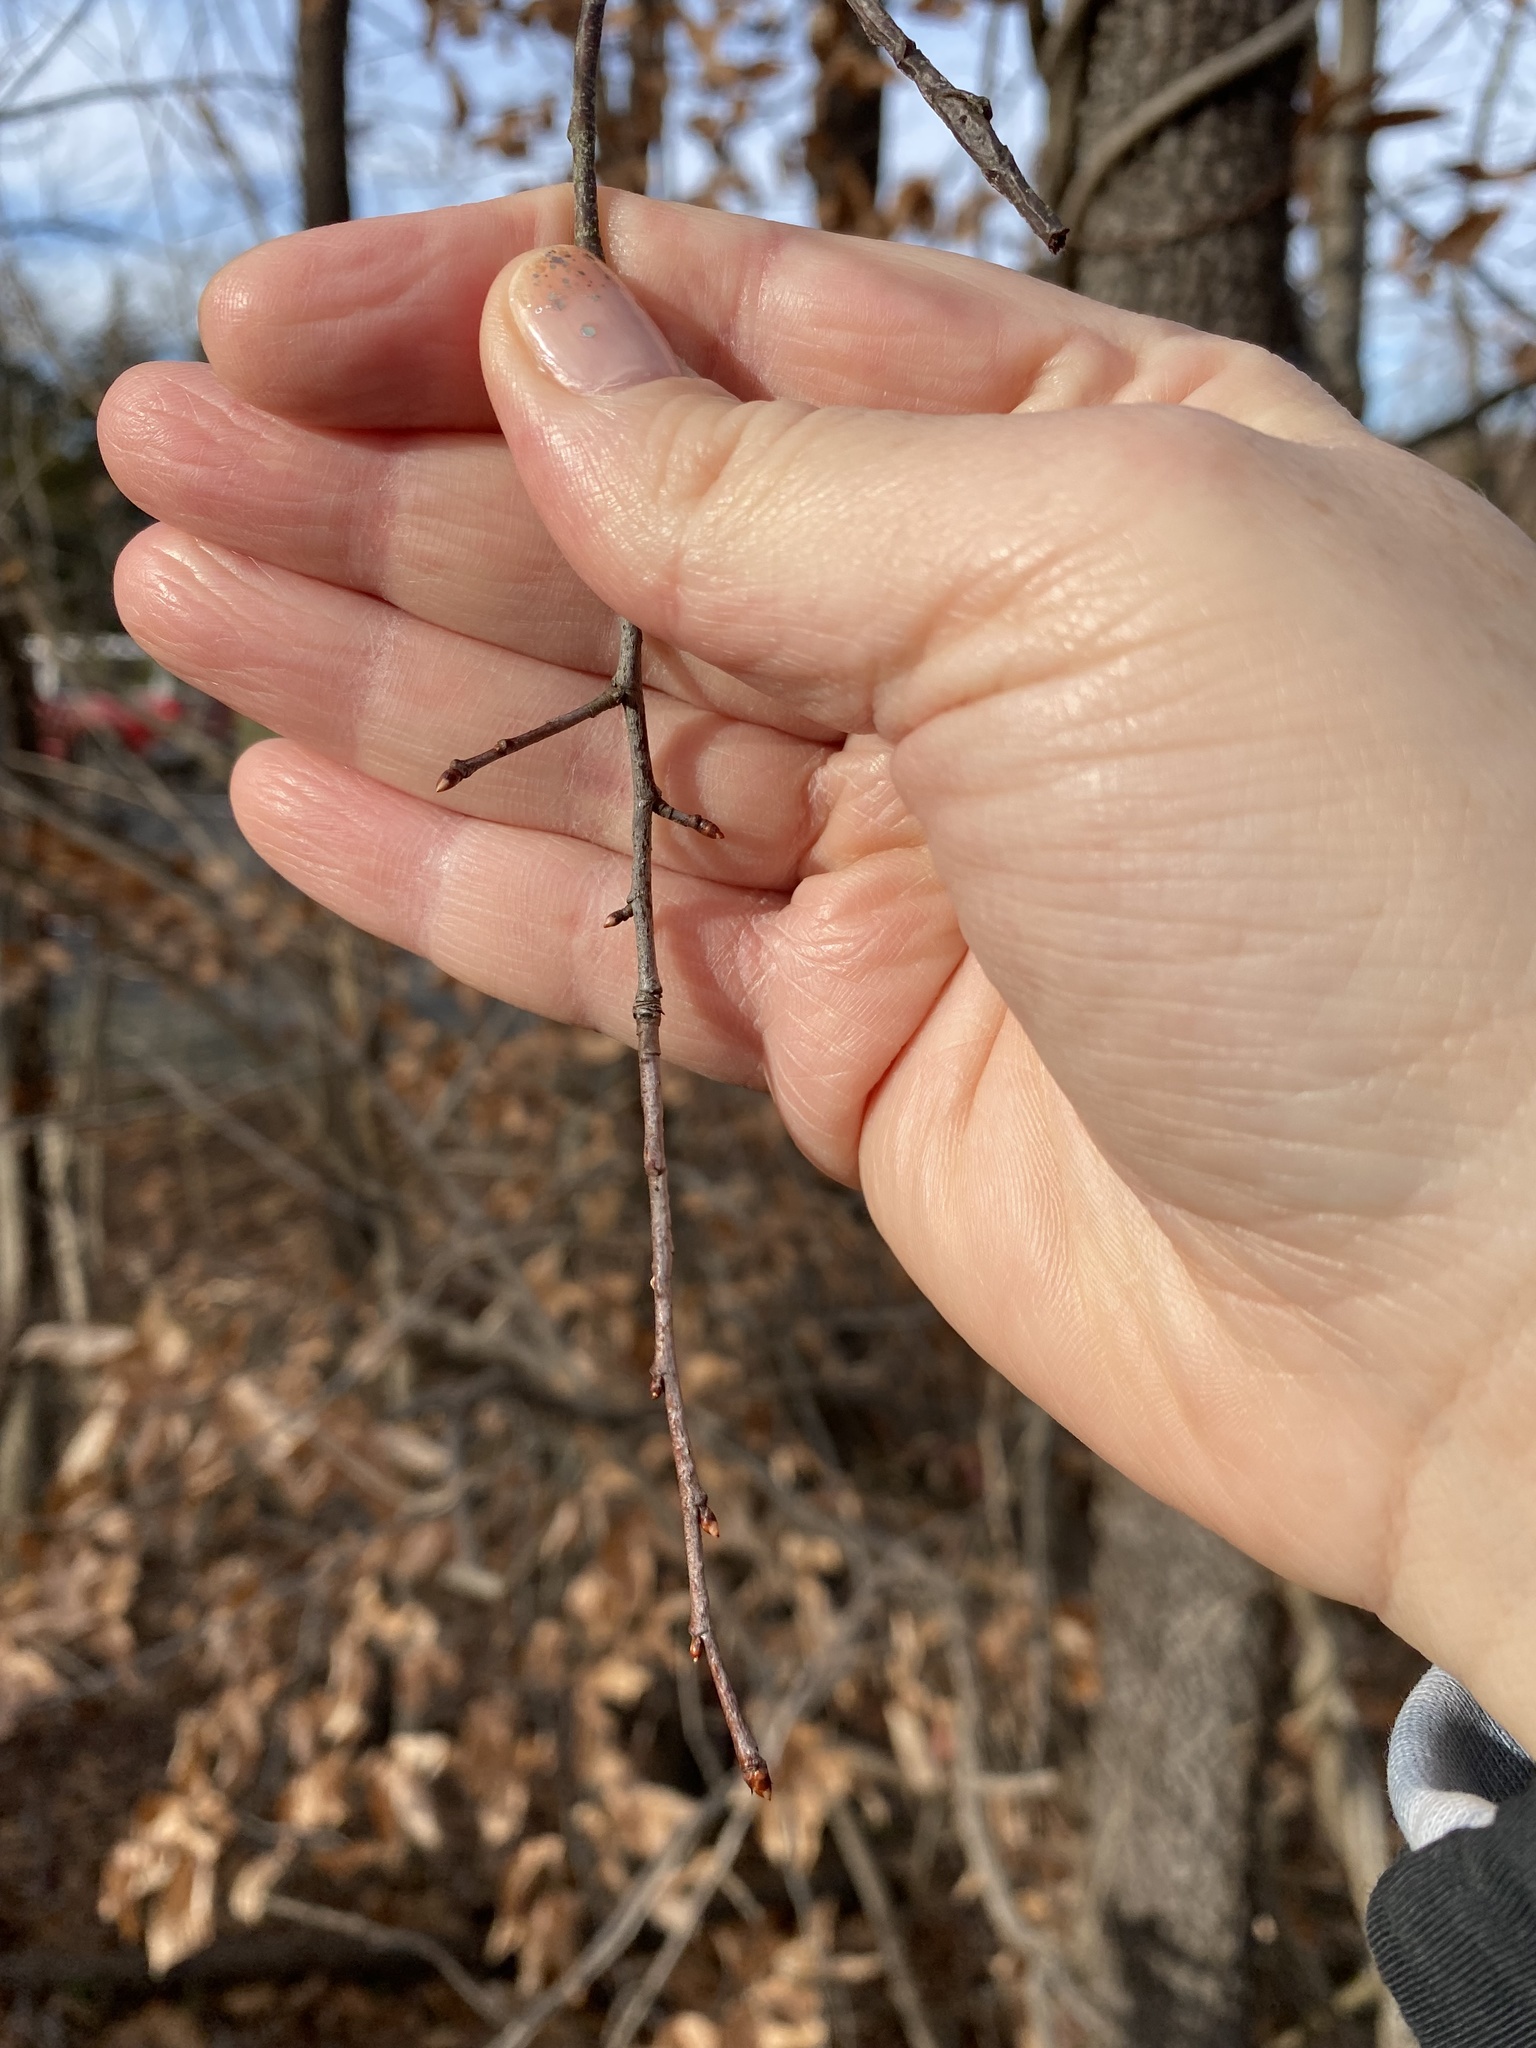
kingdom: Plantae
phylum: Tracheophyta
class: Magnoliopsida
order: Ericales
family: Ebenaceae
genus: Diospyros
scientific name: Diospyros virginiana
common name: Persimmon
